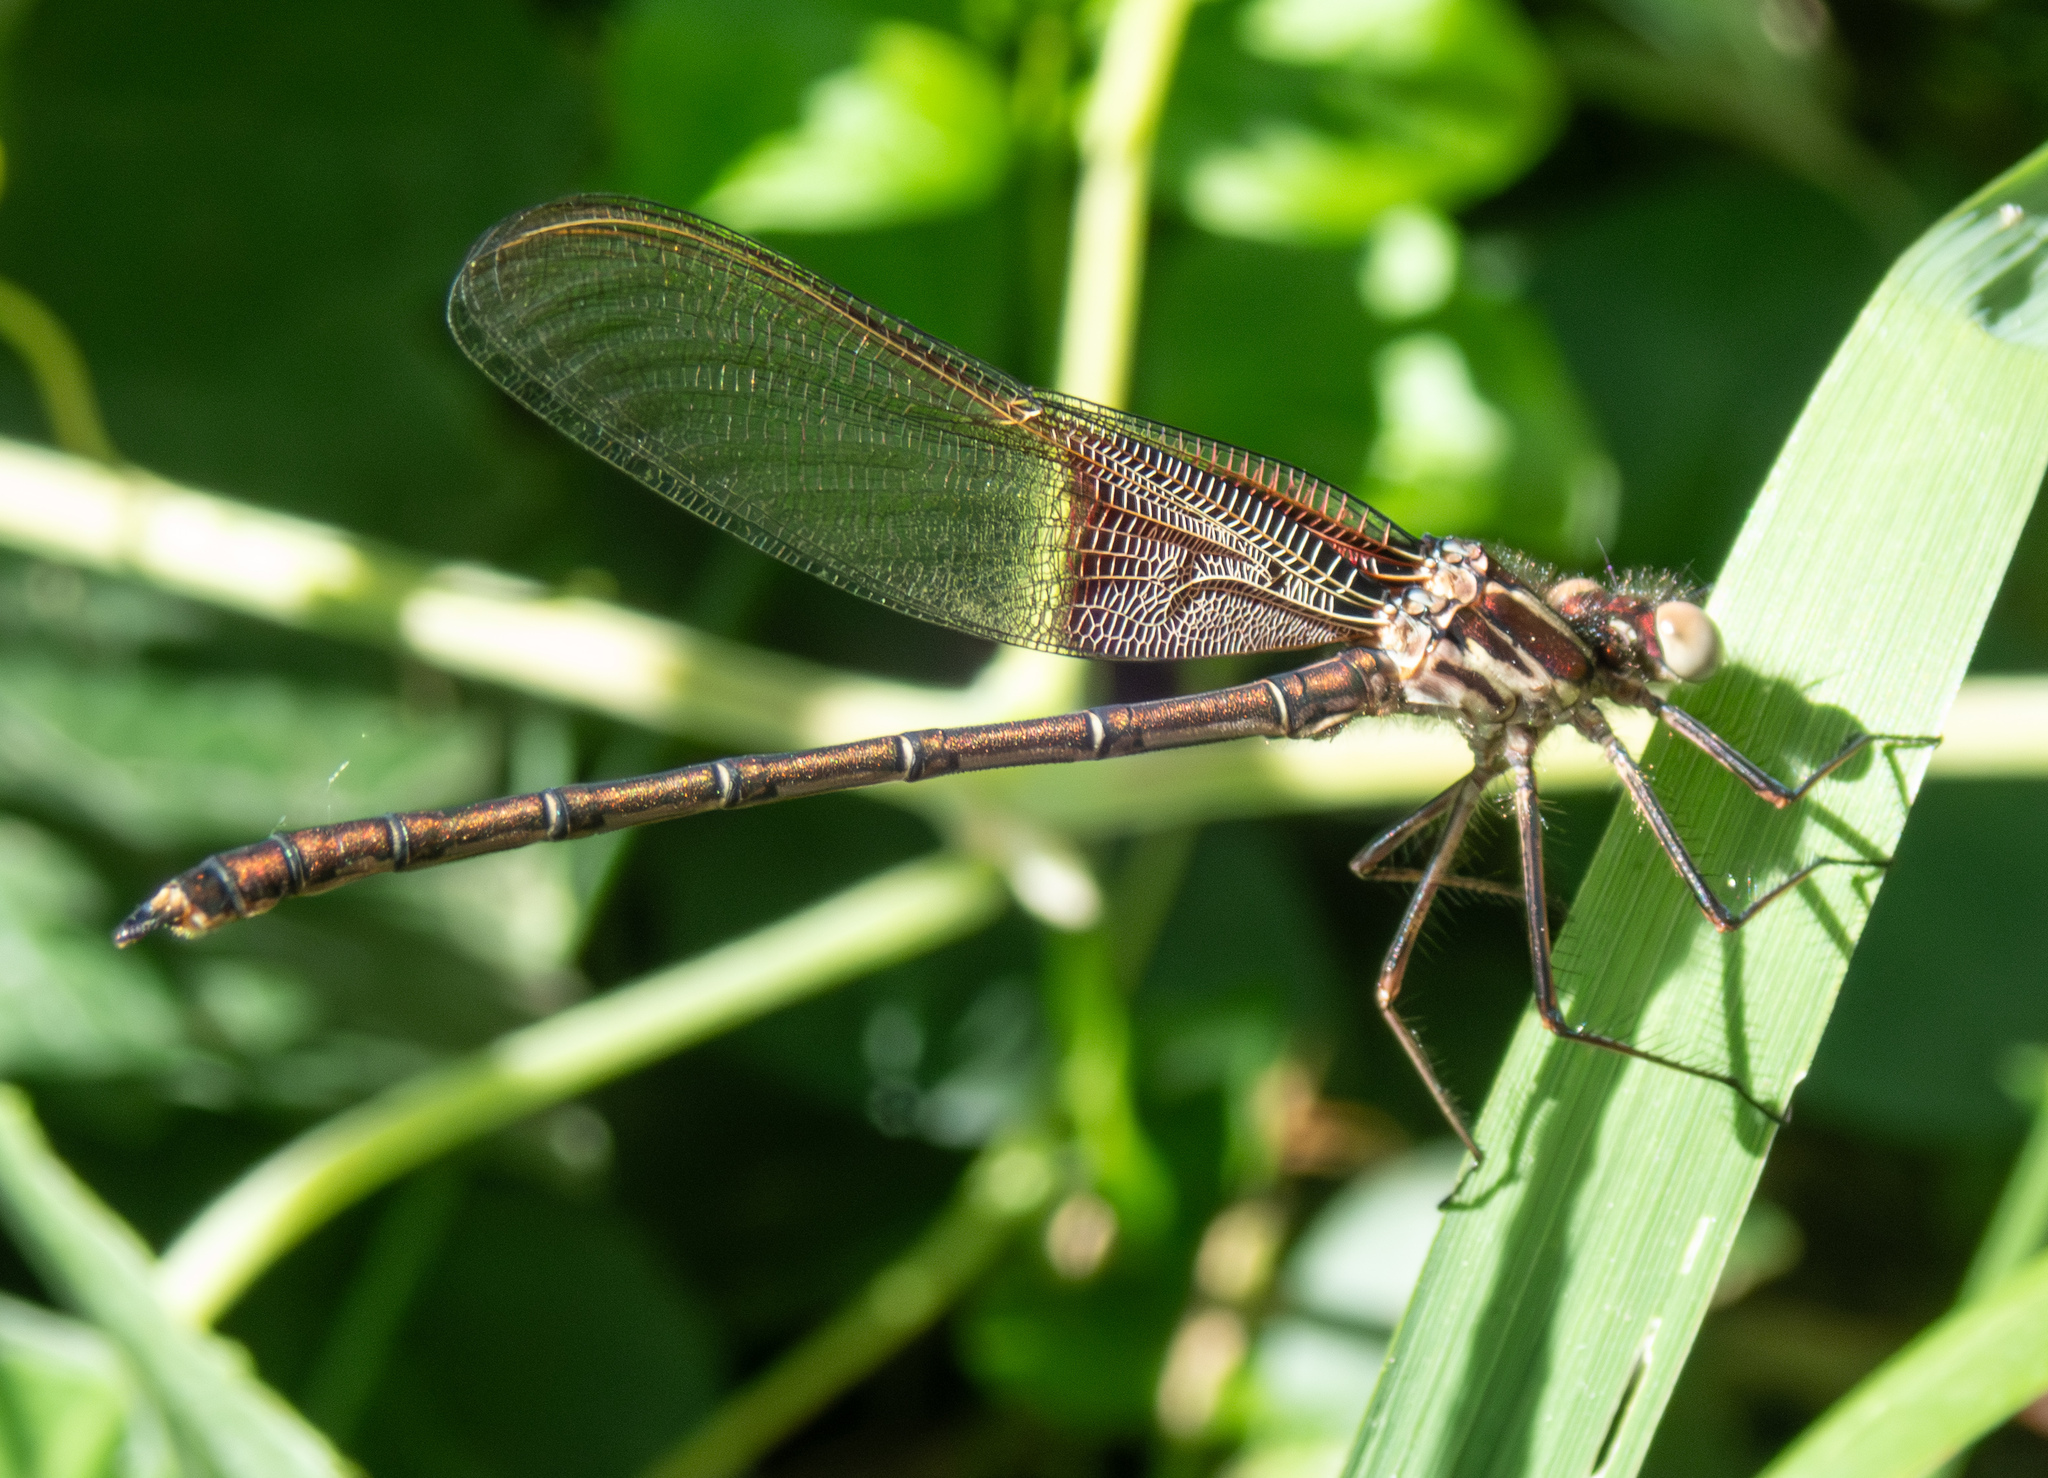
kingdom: Animalia
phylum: Arthropoda
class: Insecta
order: Odonata
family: Calopterygidae
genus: Hetaerina
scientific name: Hetaerina americana
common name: American rubyspot
